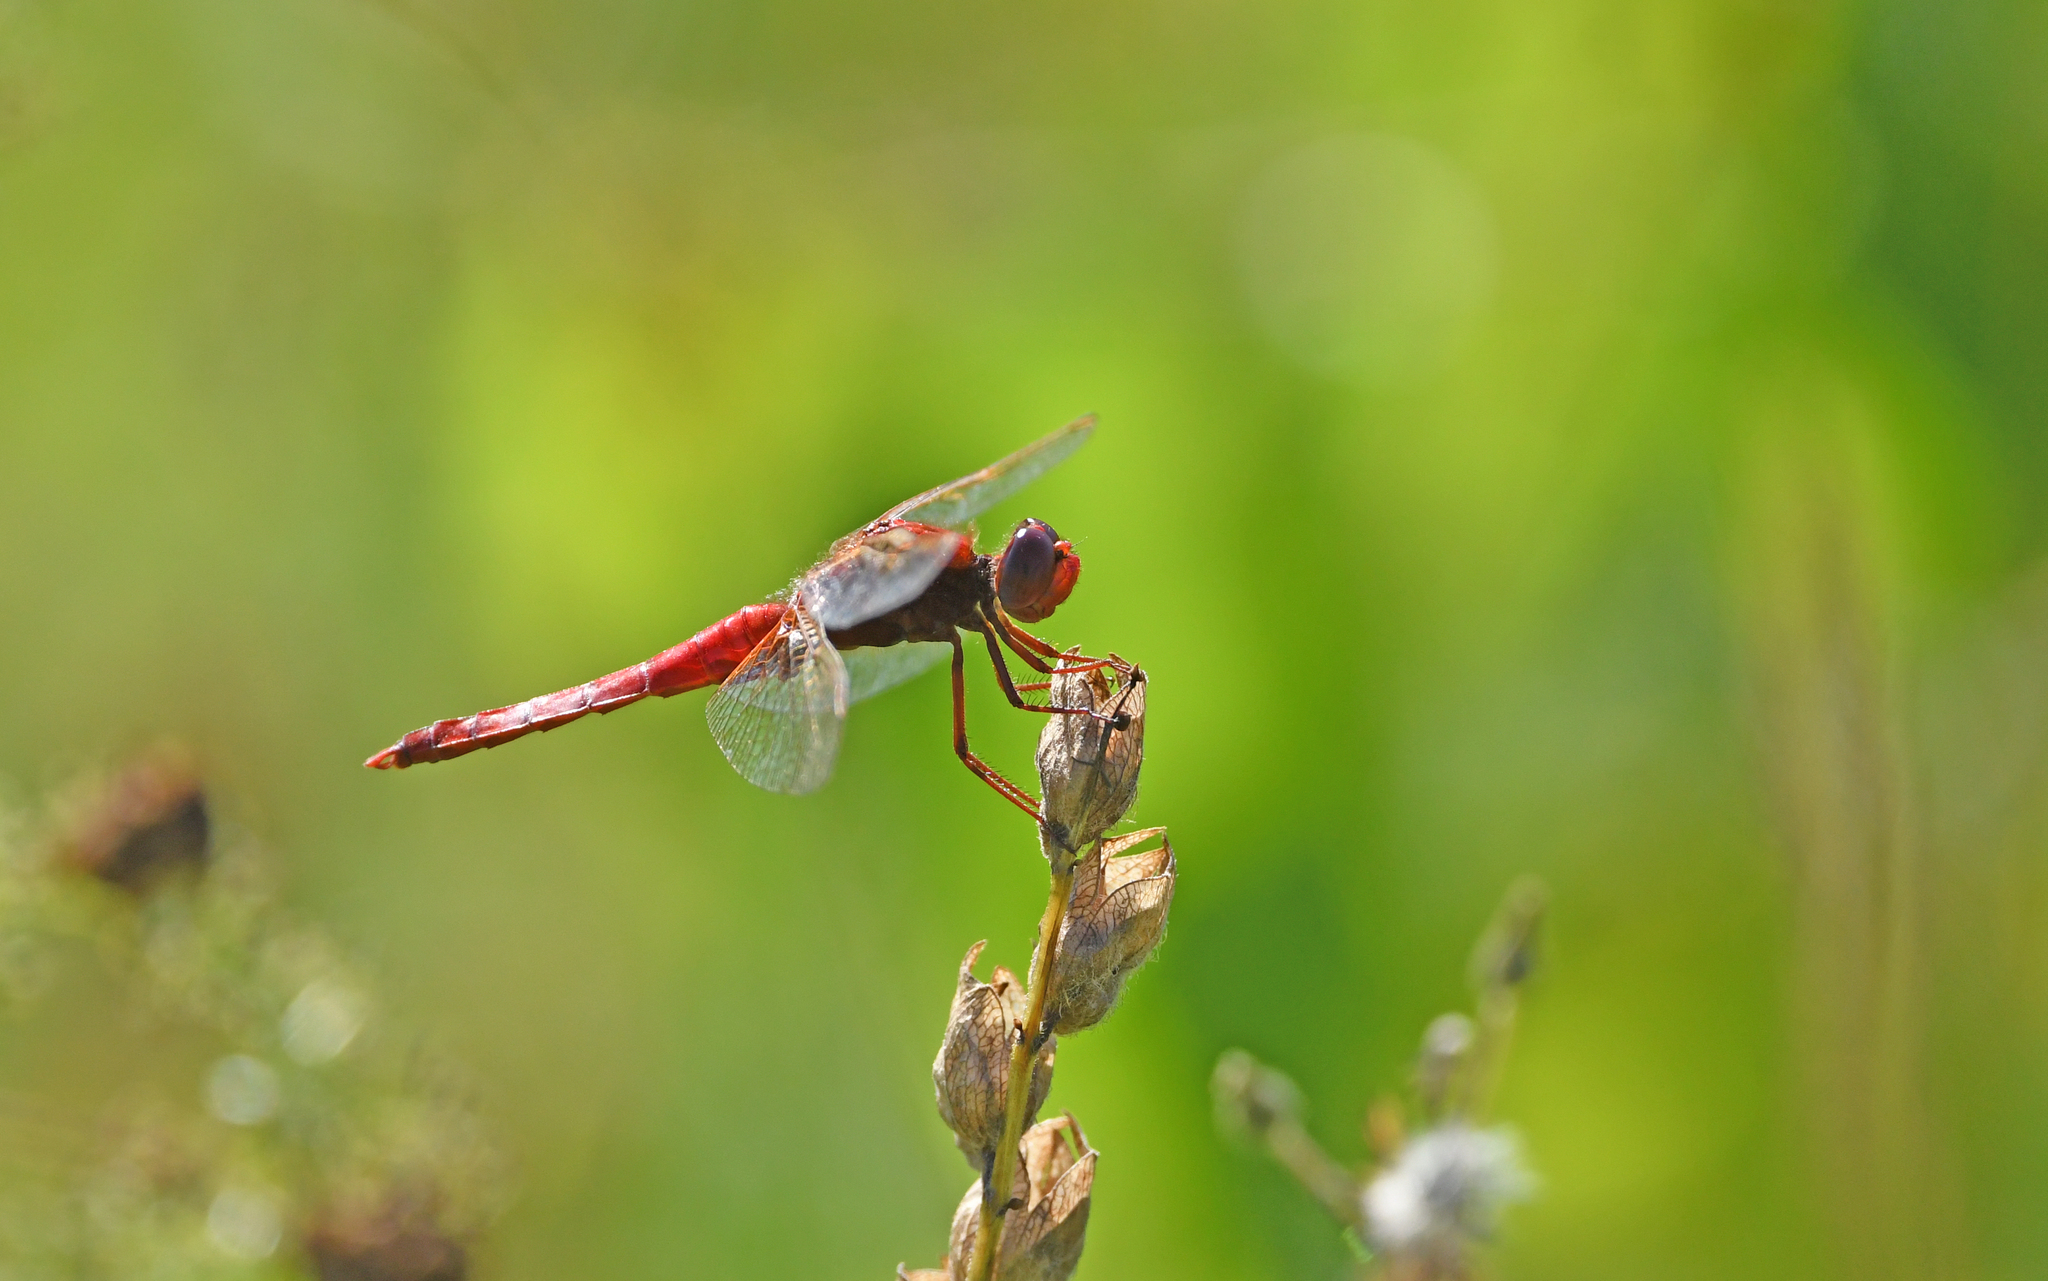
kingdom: Animalia
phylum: Arthropoda
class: Insecta
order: Odonata
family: Libellulidae
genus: Crocothemis
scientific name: Crocothemis erythraea
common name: Scarlet dragonfly
